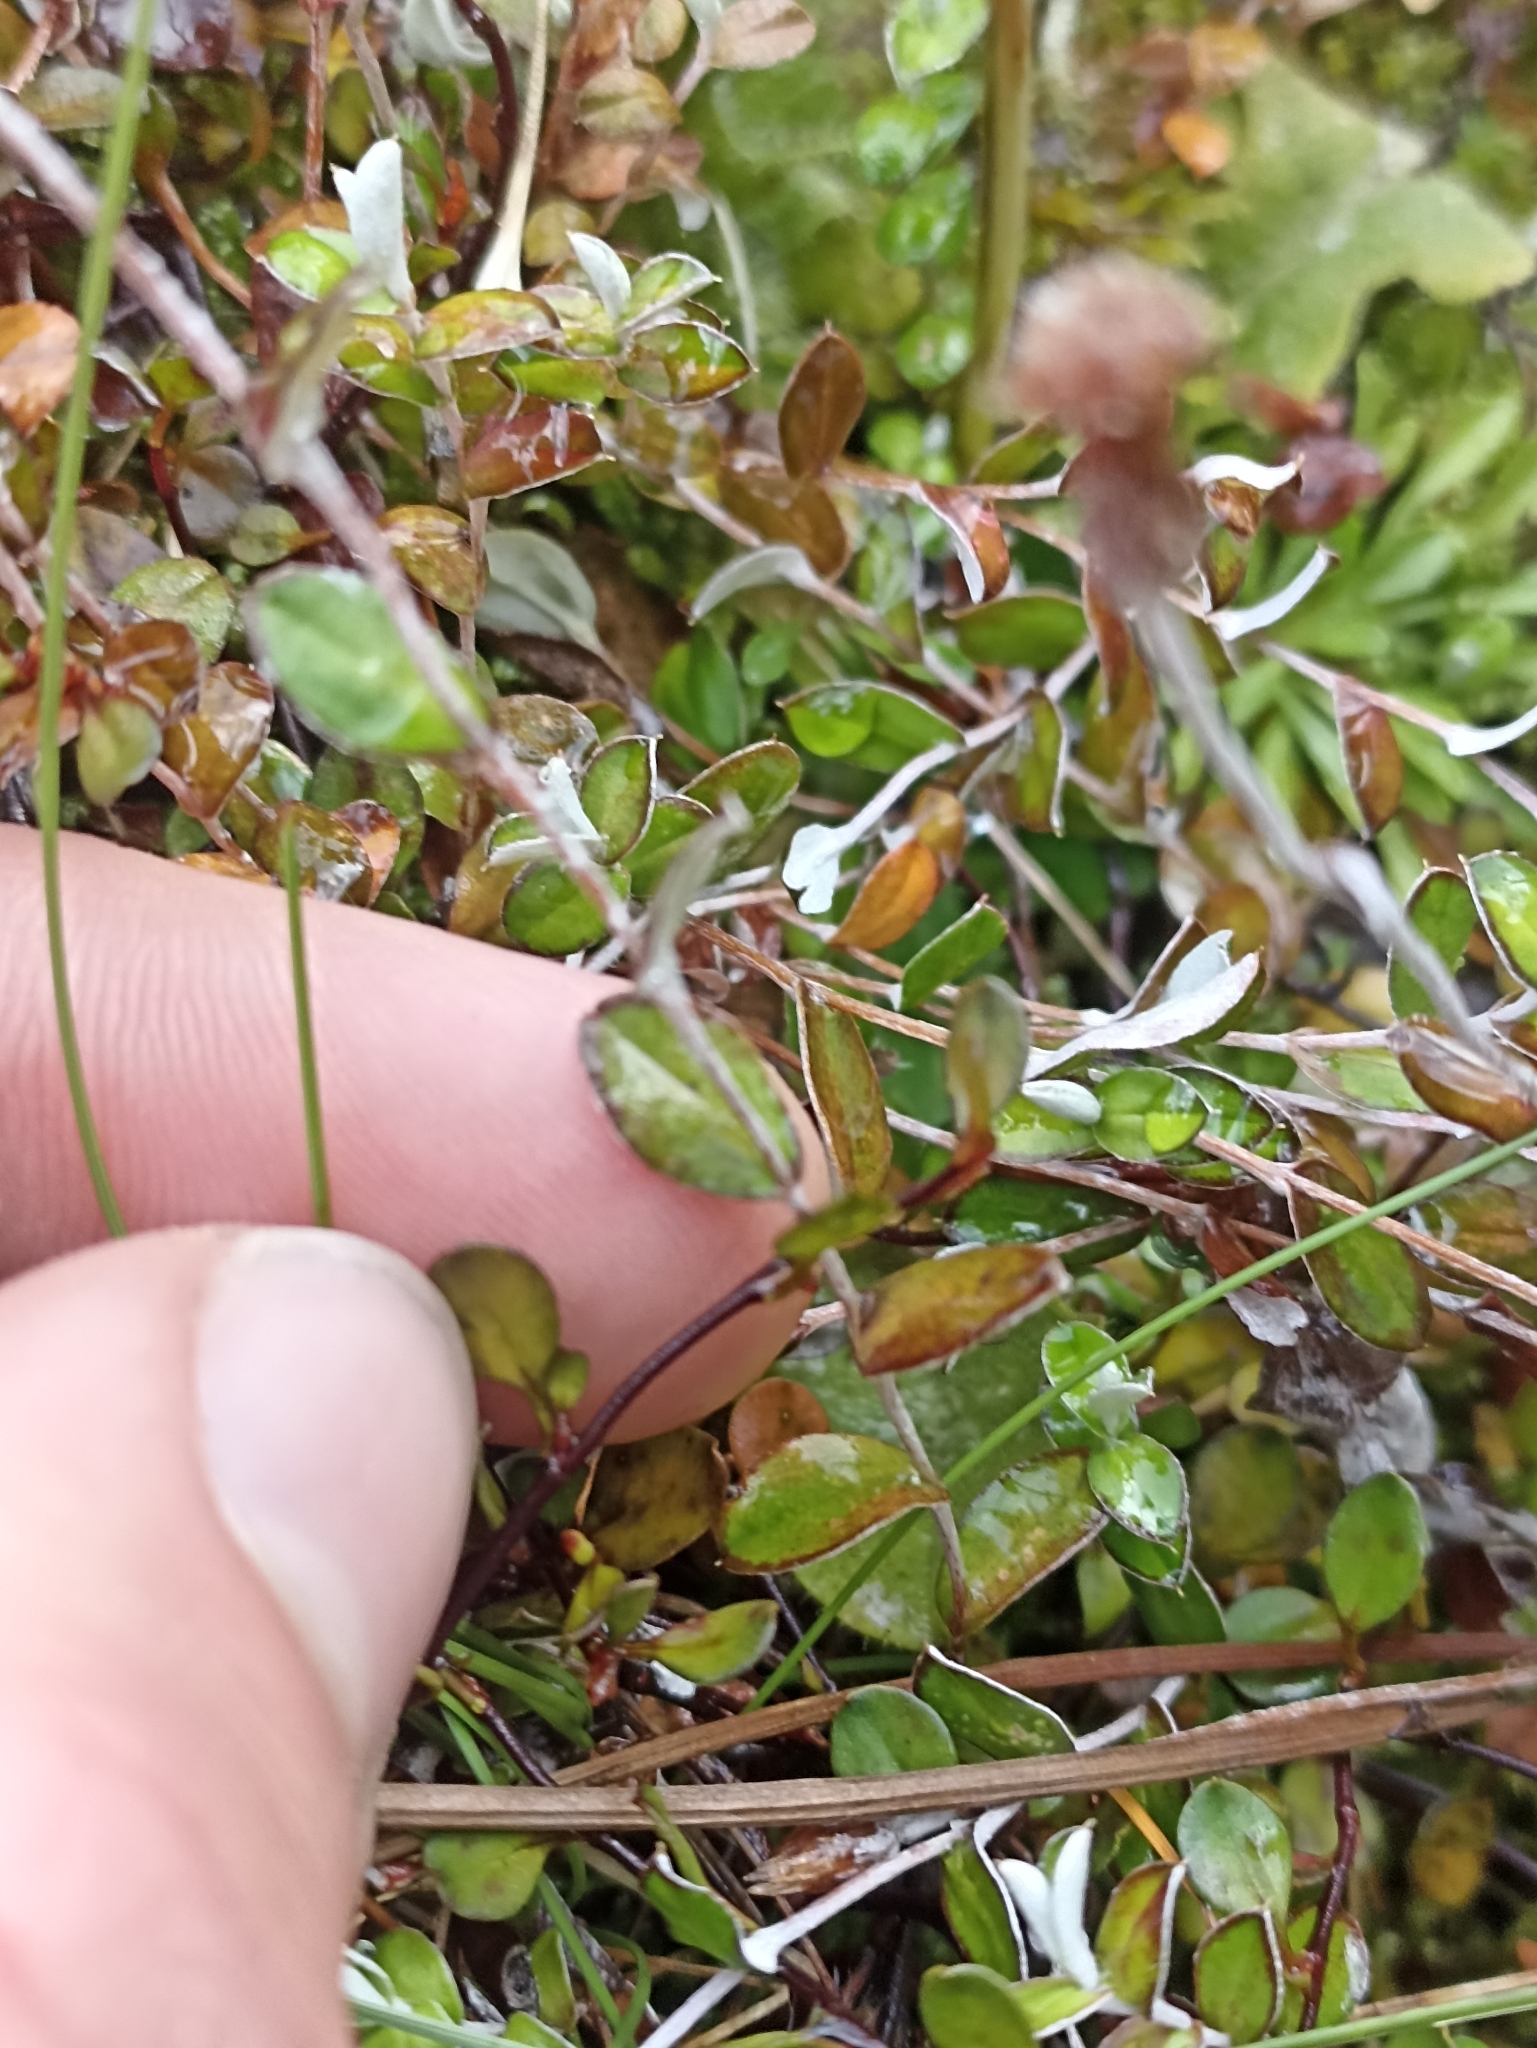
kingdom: Plantae
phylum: Tracheophyta
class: Magnoliopsida
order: Asterales
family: Asteraceae
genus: Helichrysum
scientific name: Helichrysum filicaule
